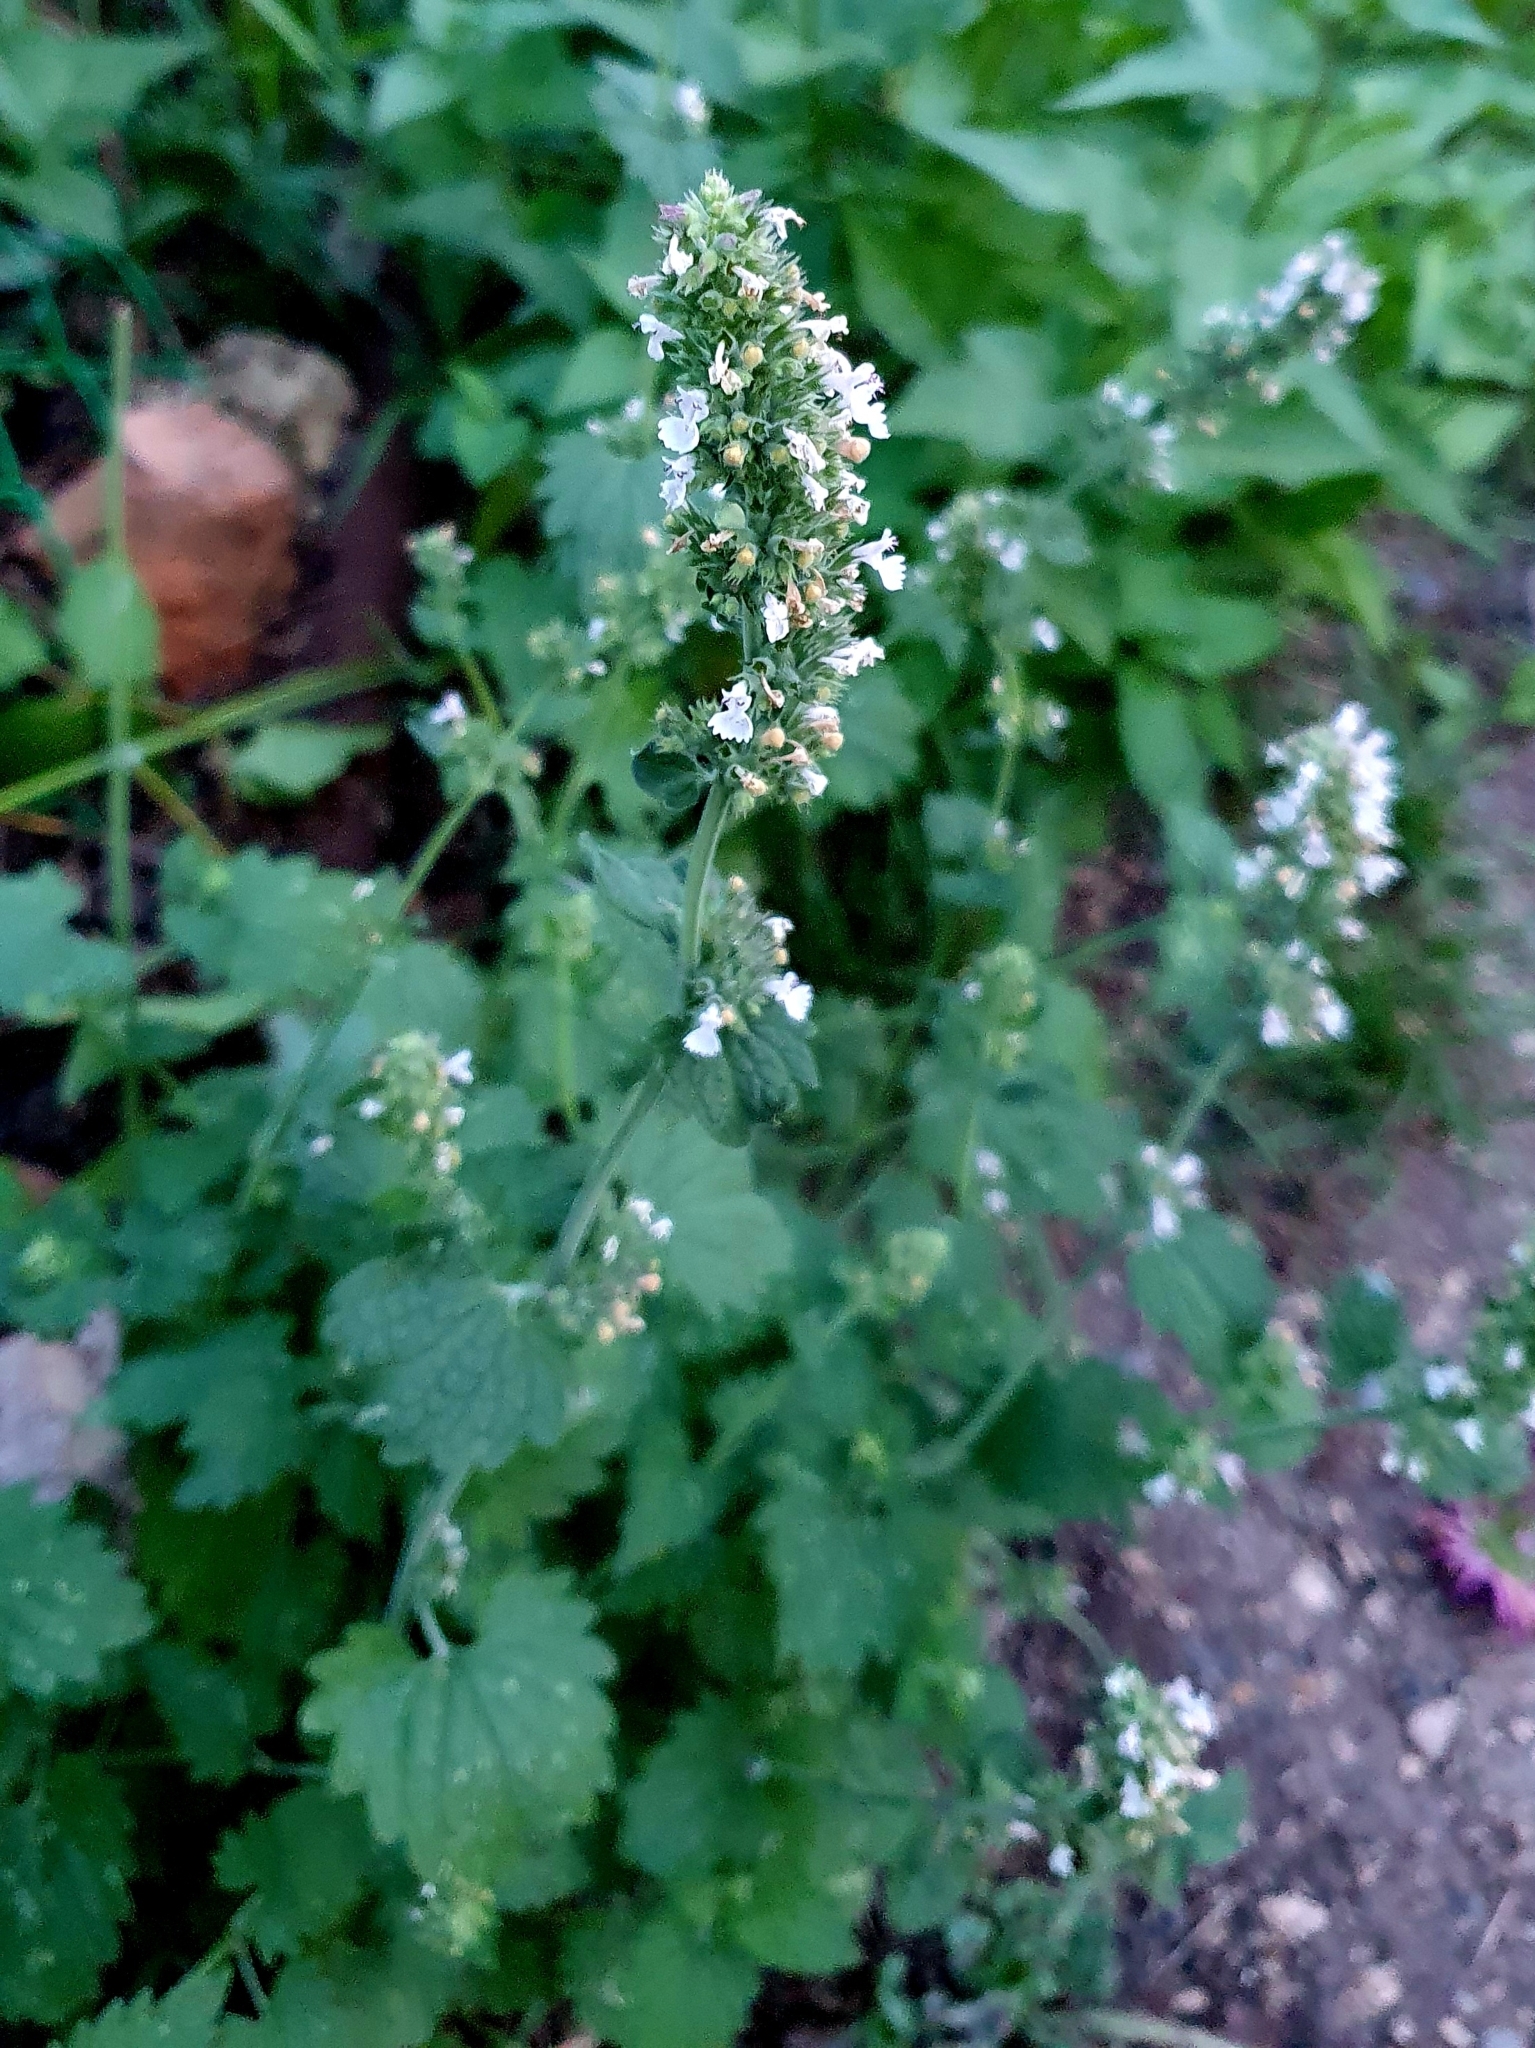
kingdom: Plantae
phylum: Tracheophyta
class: Magnoliopsida
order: Lamiales
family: Lamiaceae
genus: Nepeta
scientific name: Nepeta cataria
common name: Catnip
